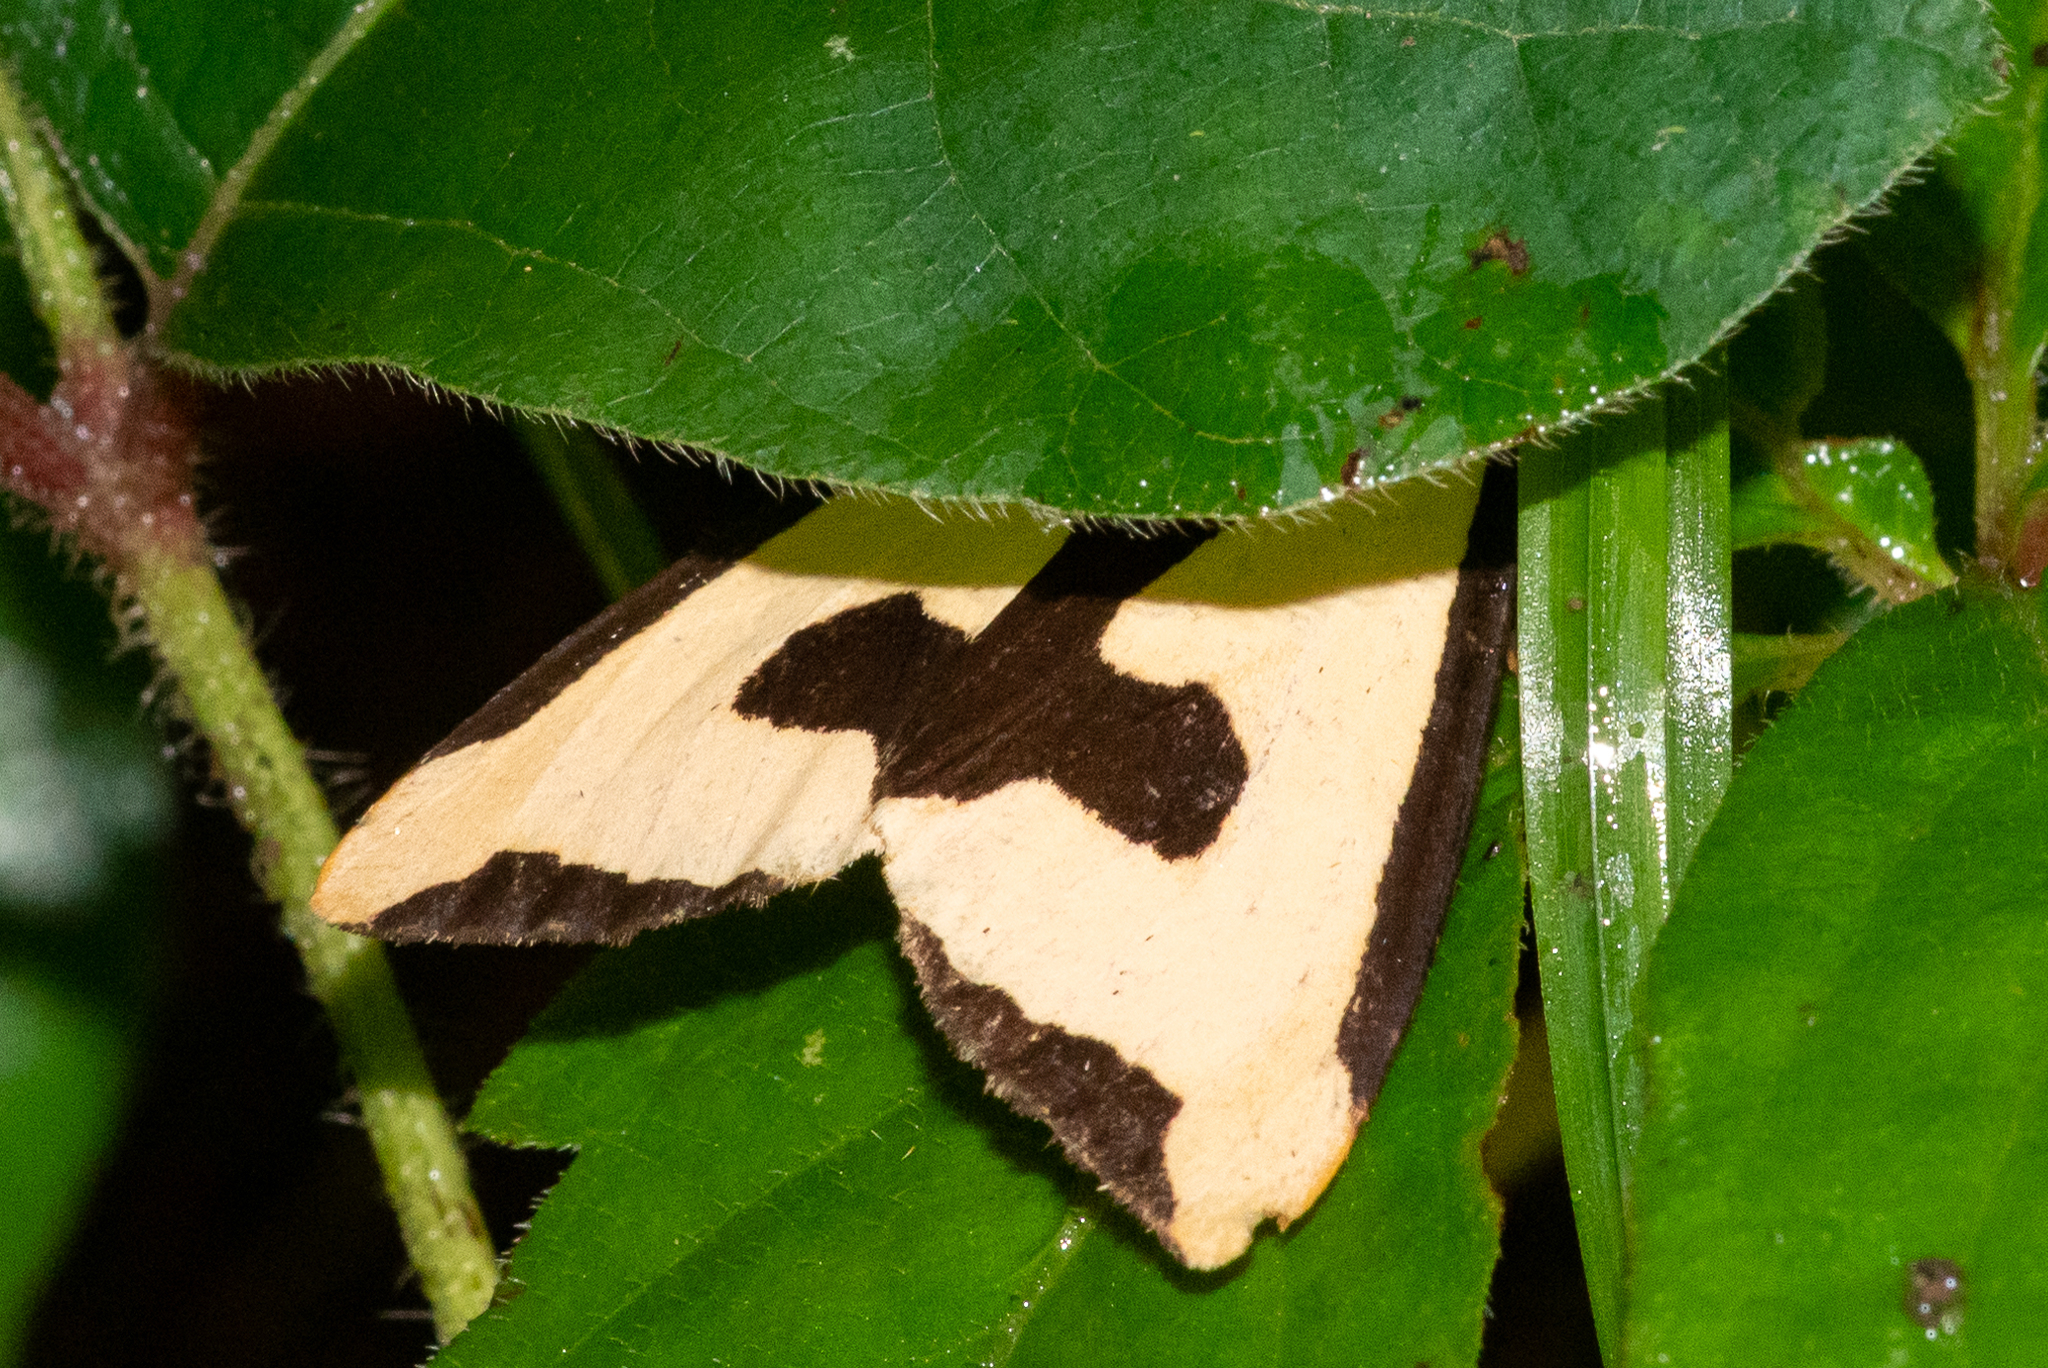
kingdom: Animalia
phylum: Arthropoda
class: Insecta
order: Lepidoptera
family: Erebidae
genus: Haploa
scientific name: Haploa clymene
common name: Clymene moth
